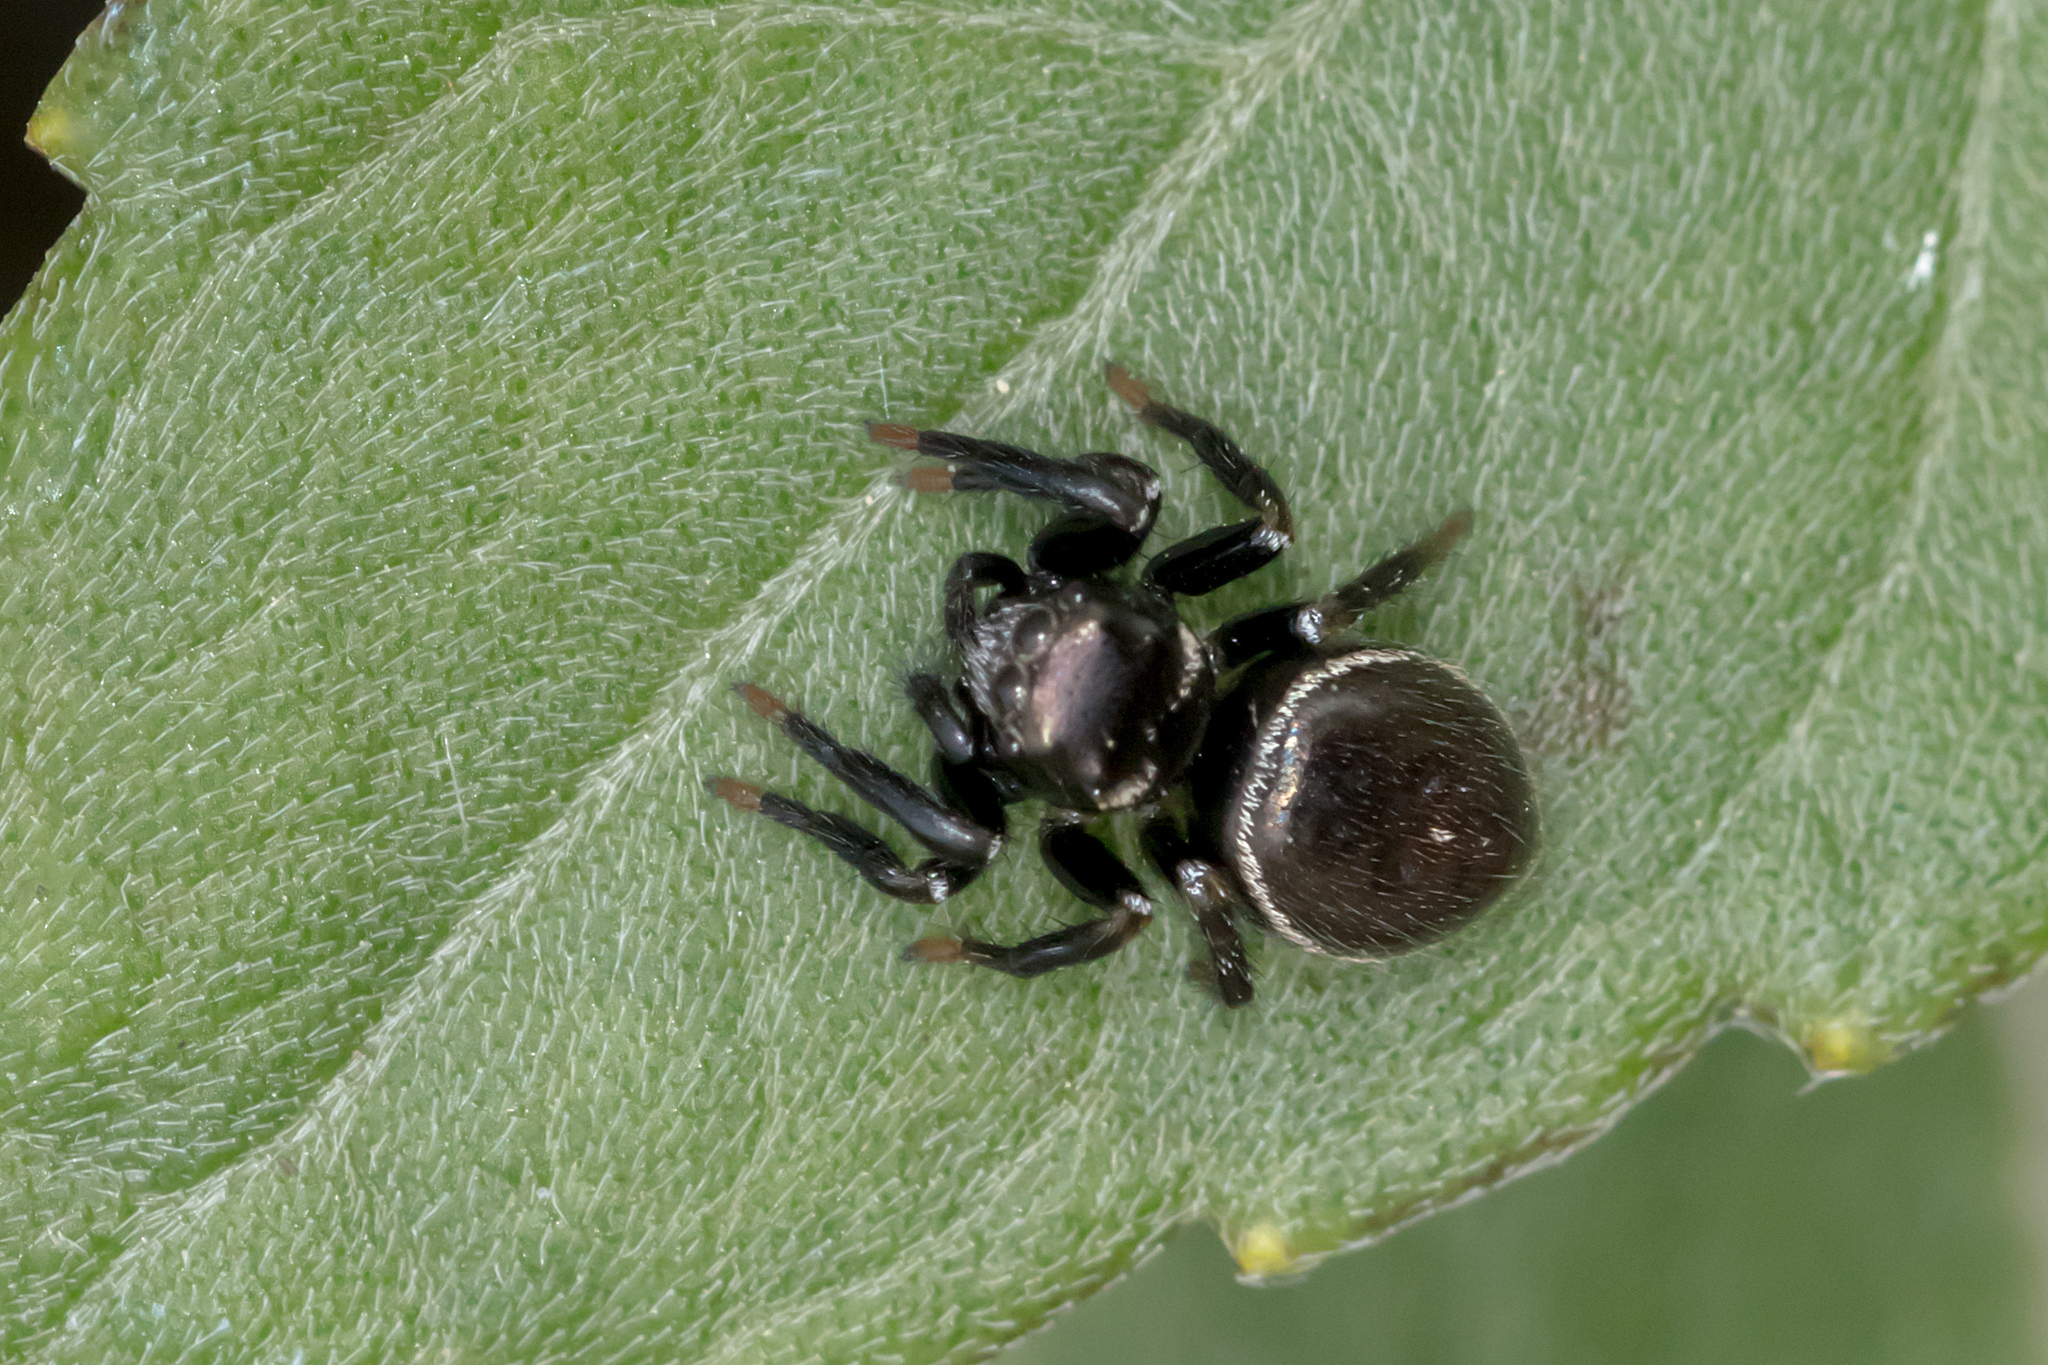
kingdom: Animalia
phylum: Arthropoda
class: Arachnida
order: Araneae
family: Salticidae
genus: Zenodorus
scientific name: Zenodorus orbiculatus
